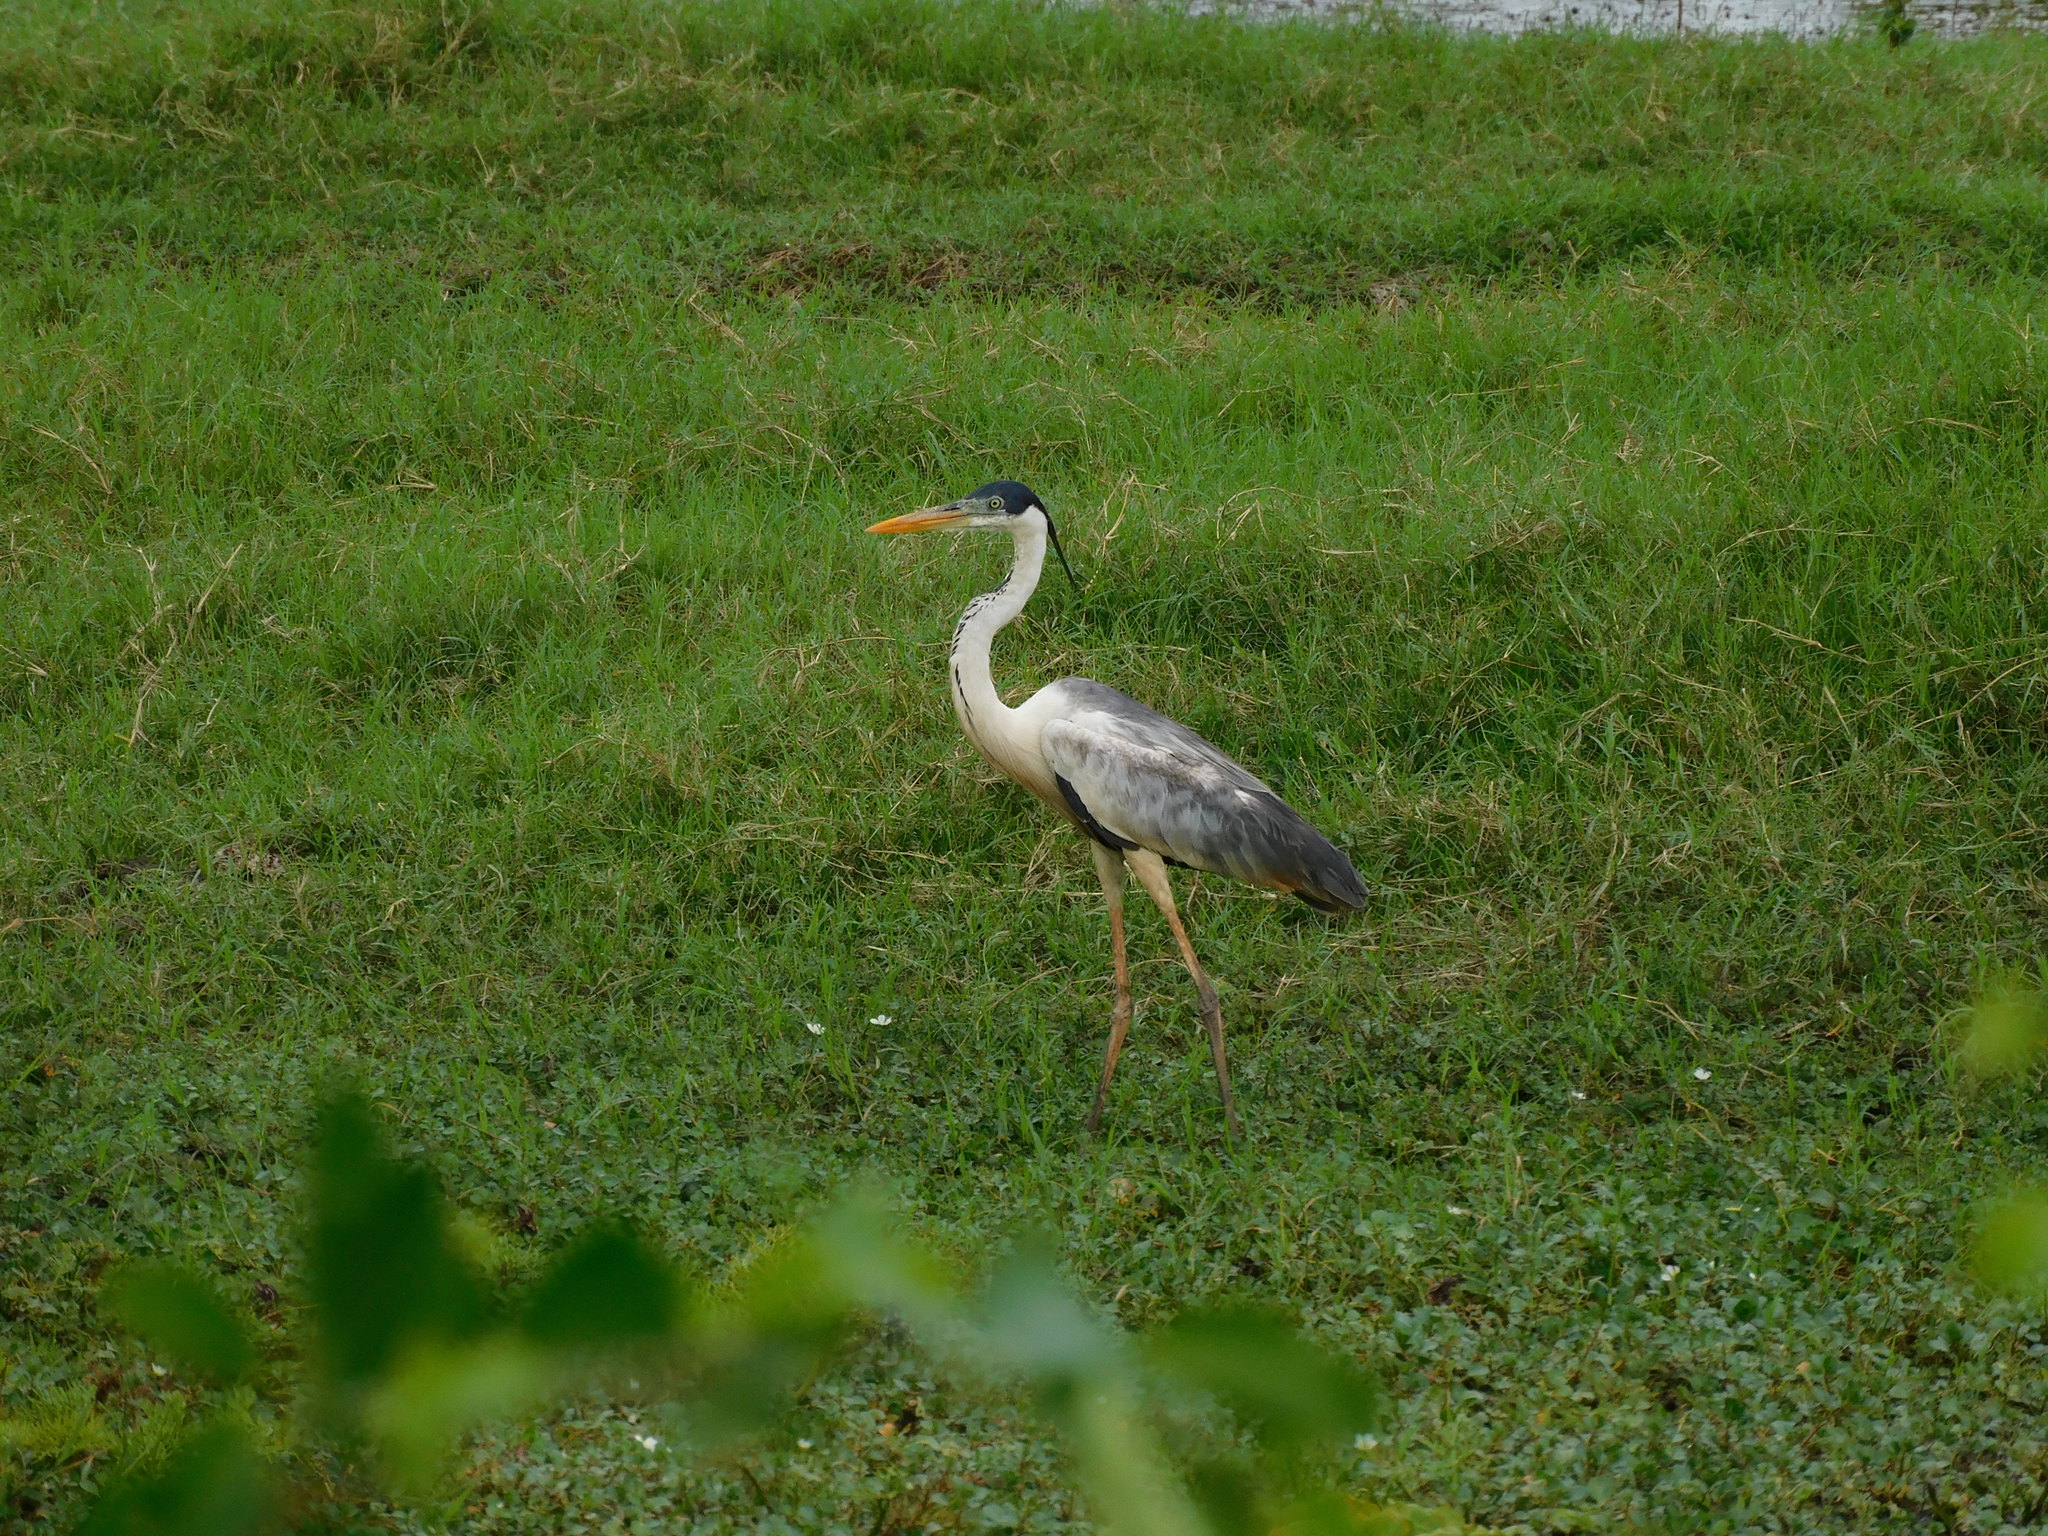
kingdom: Animalia
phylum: Chordata
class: Aves
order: Pelecaniformes
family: Ardeidae
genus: Ardea
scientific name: Ardea cocoi
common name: Cocoi heron
